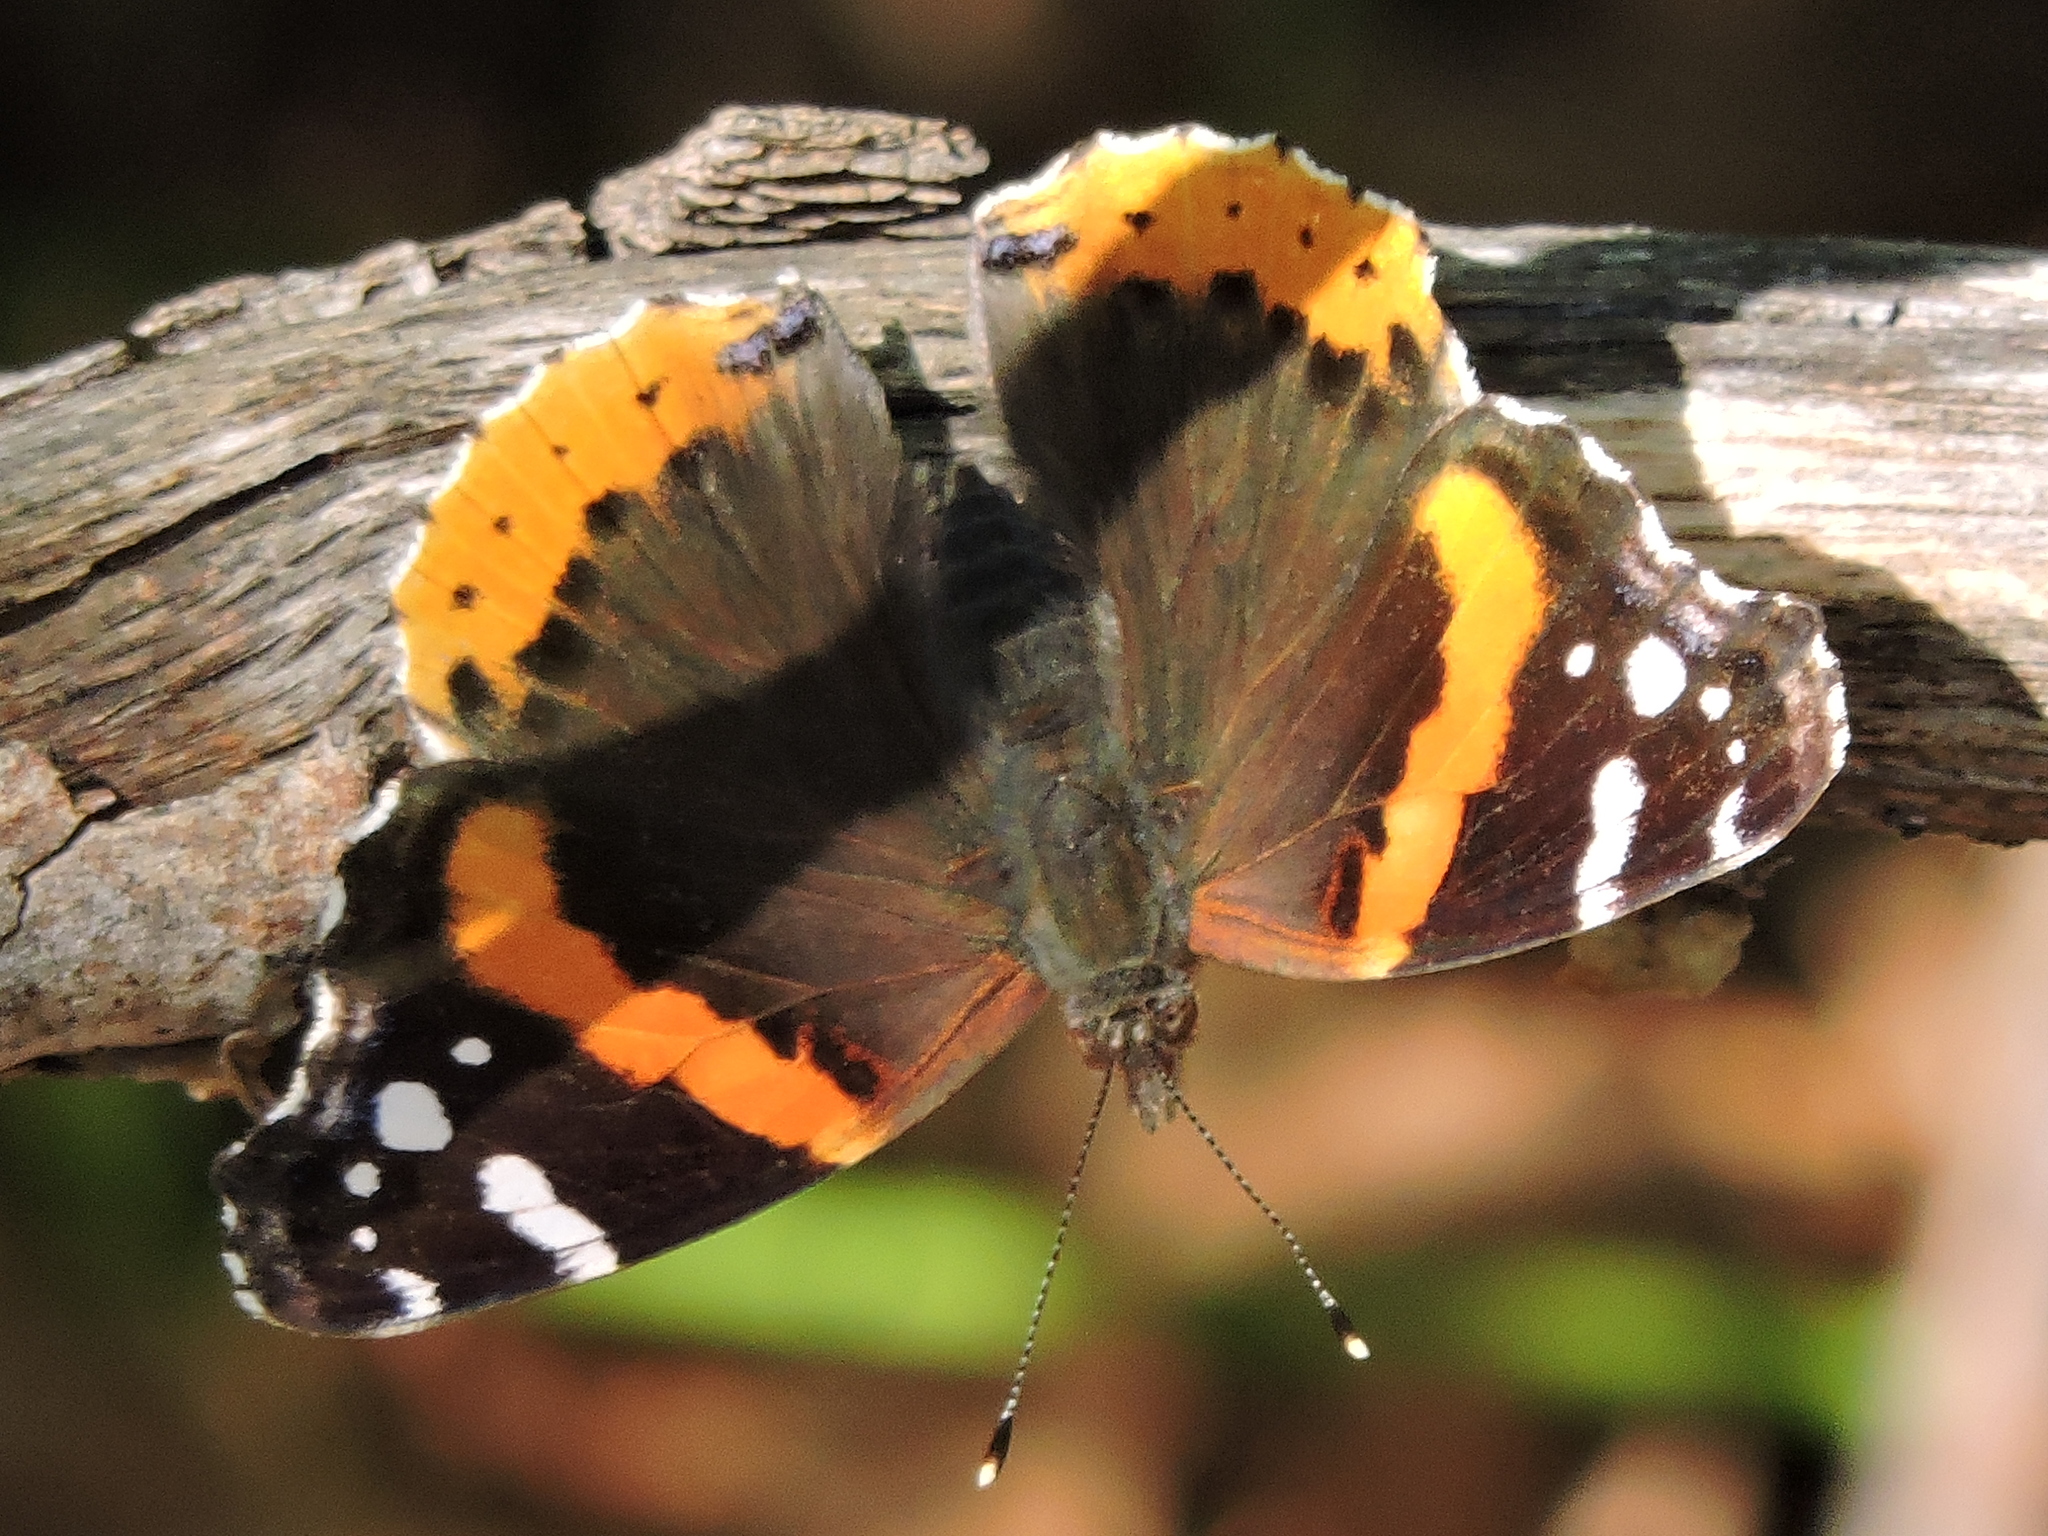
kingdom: Animalia
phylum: Arthropoda
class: Insecta
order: Lepidoptera
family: Nymphalidae
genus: Vanessa
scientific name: Vanessa atalanta
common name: Red admiral
